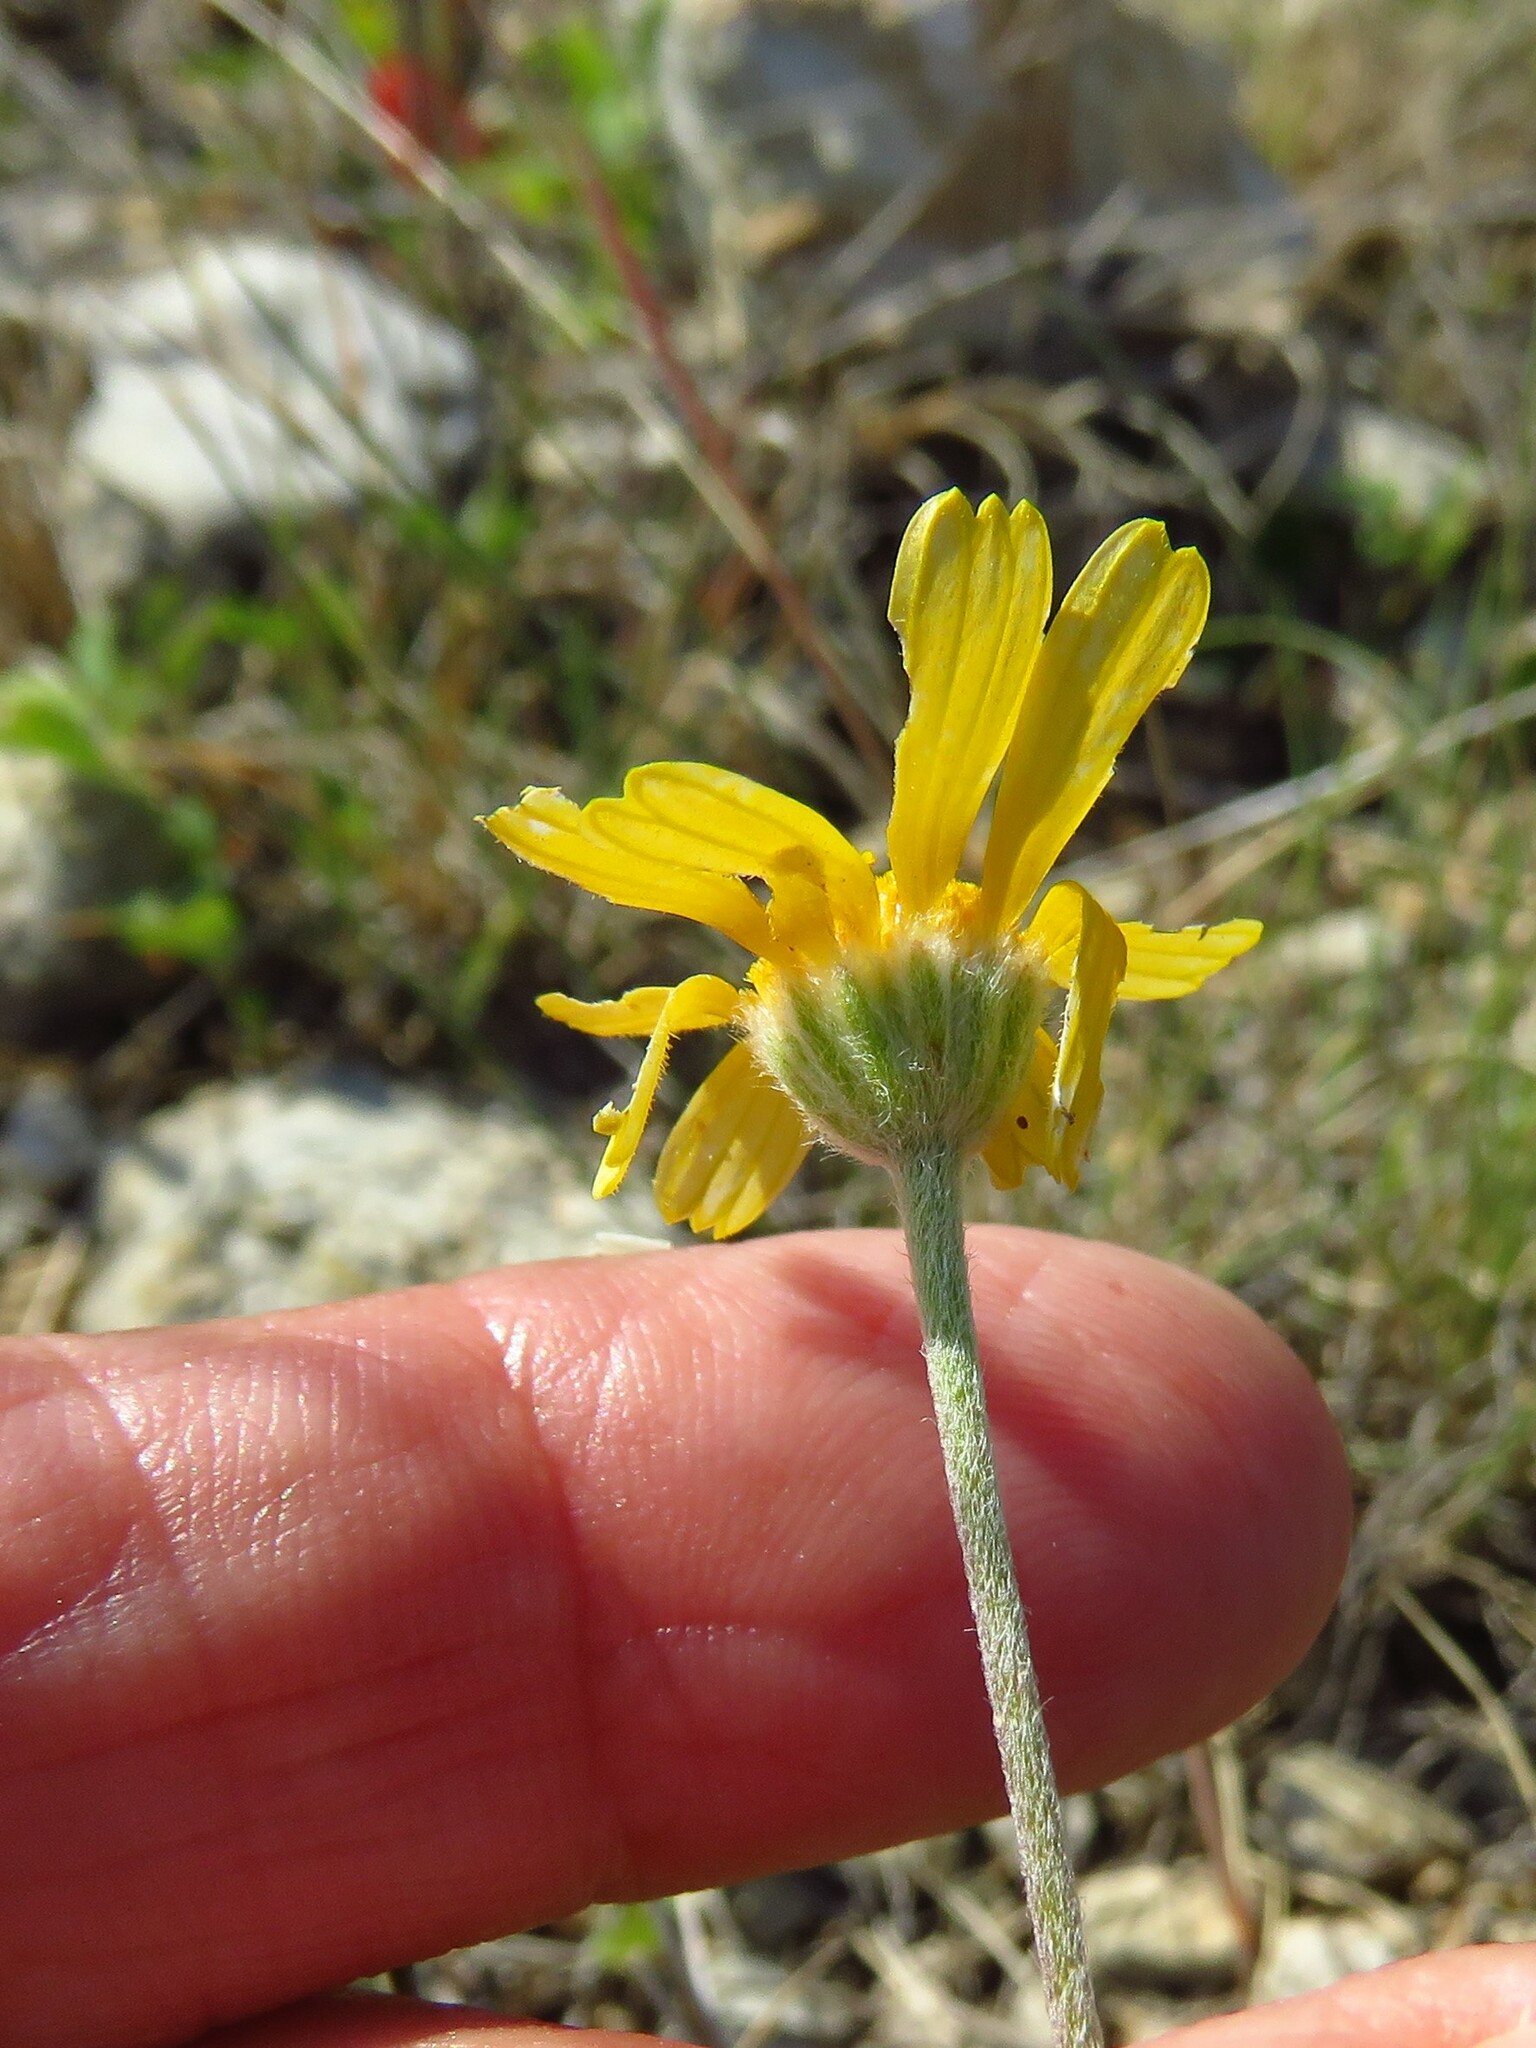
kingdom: Plantae
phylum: Tracheophyta
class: Magnoliopsida
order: Asterales
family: Asteraceae
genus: Tetraneuris
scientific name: Tetraneuris scaposa
